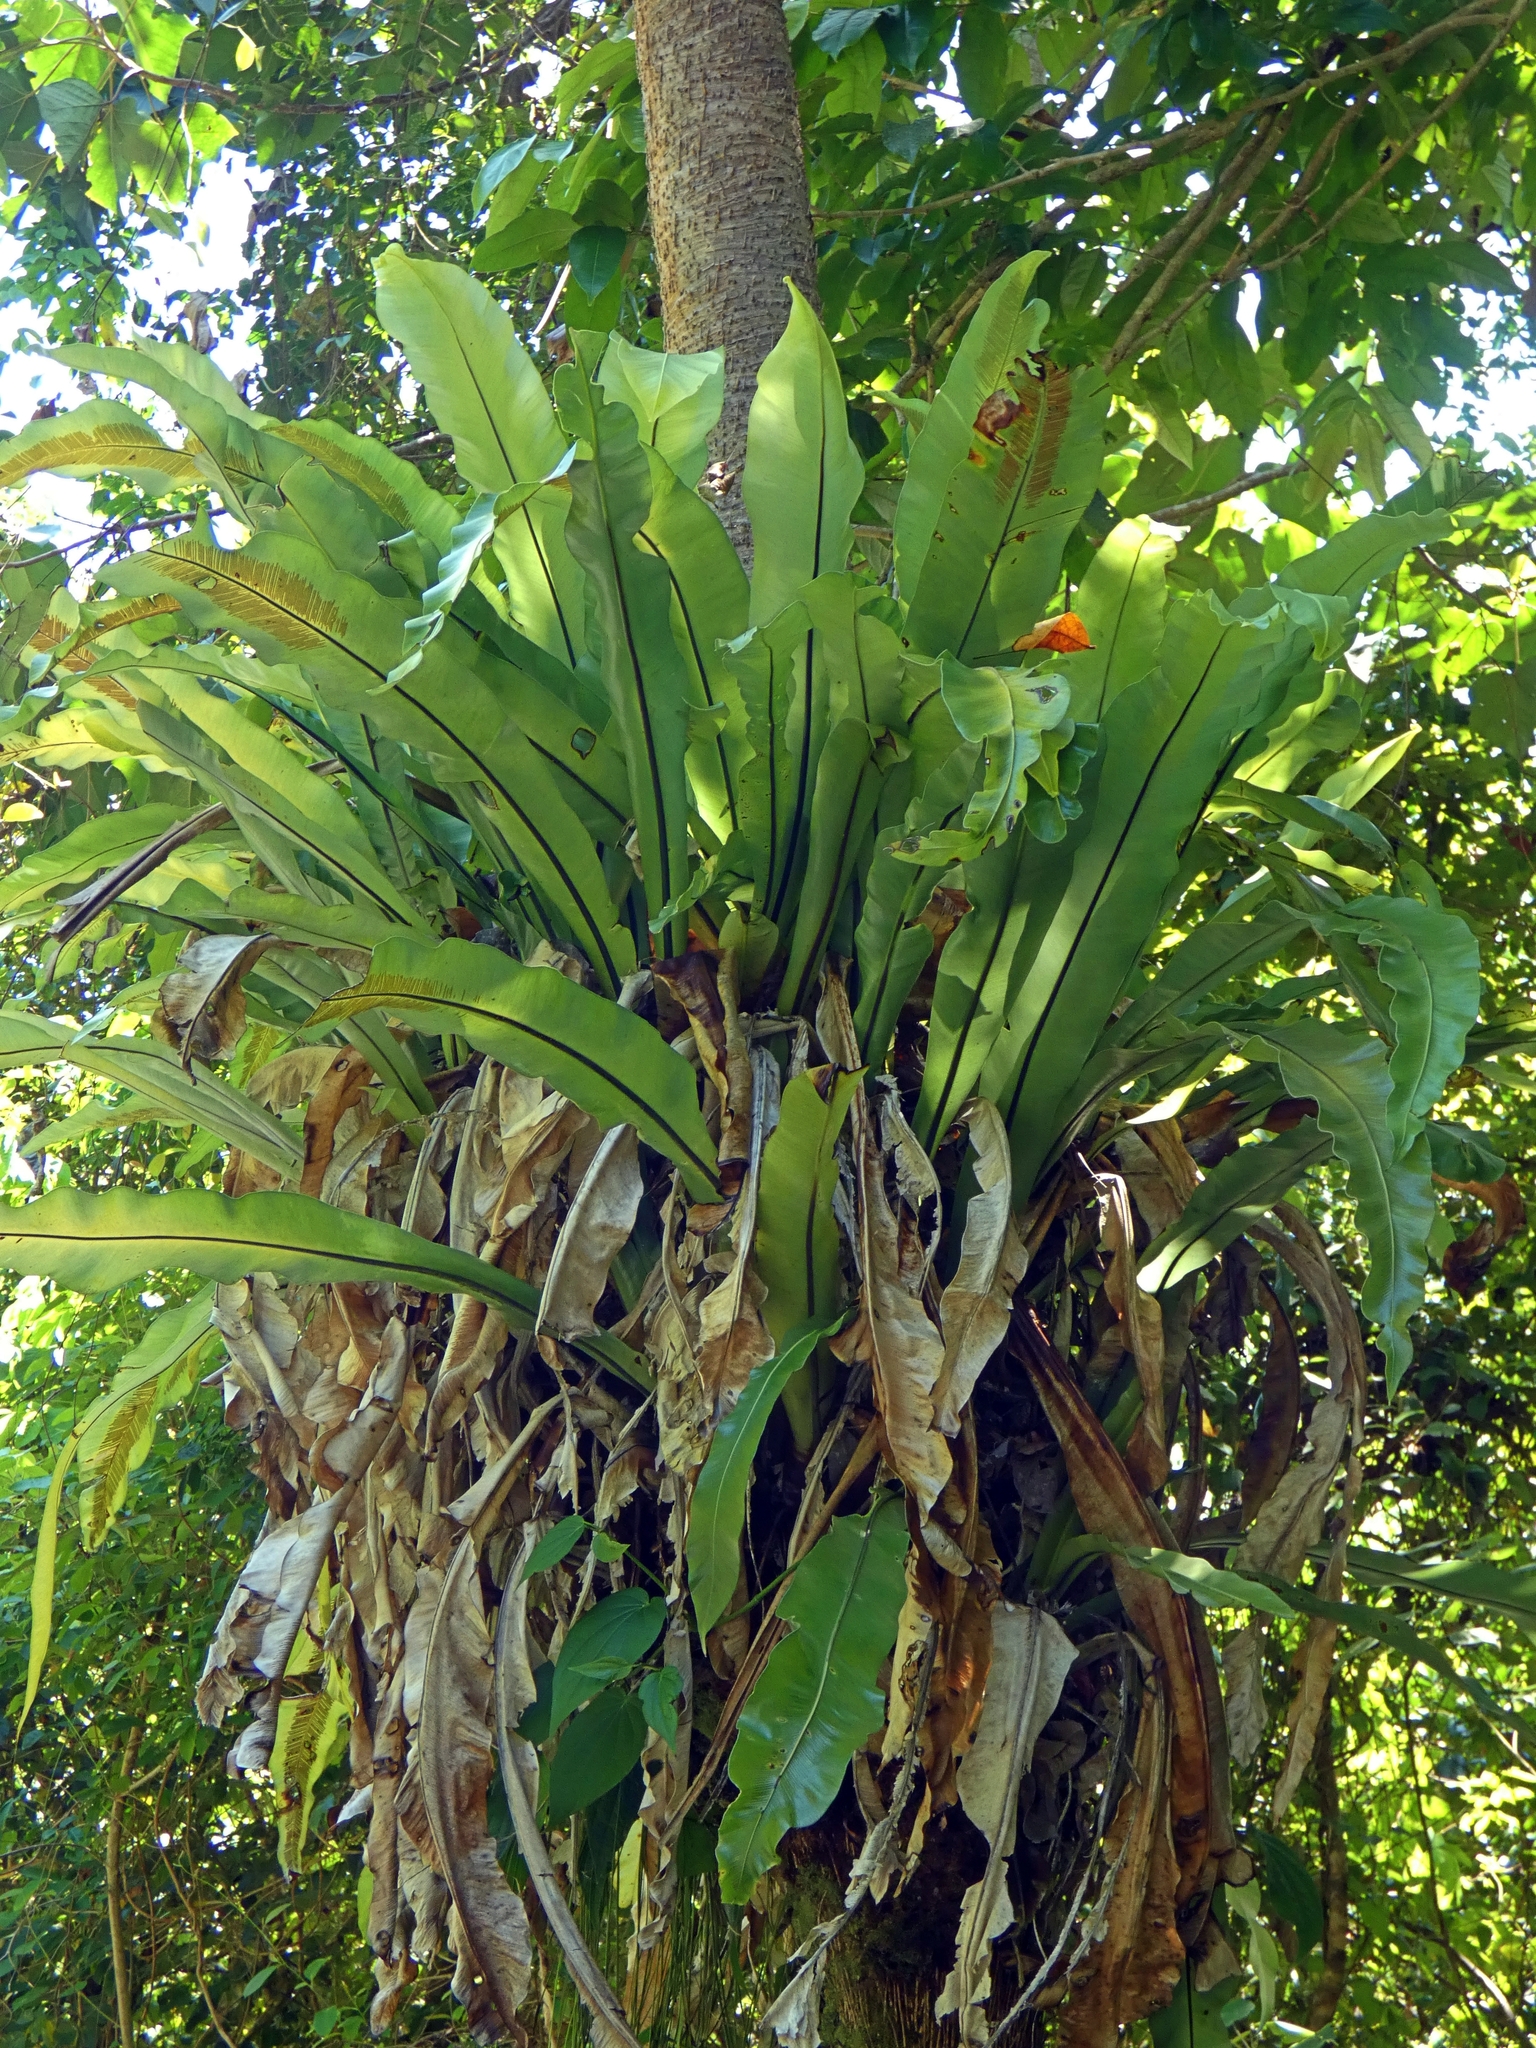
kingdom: Plantae
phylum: Tracheophyta
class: Polypodiopsida
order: Polypodiales
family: Aspleniaceae
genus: Asplenium
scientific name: Asplenium nidus
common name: Bird's-nest fern
